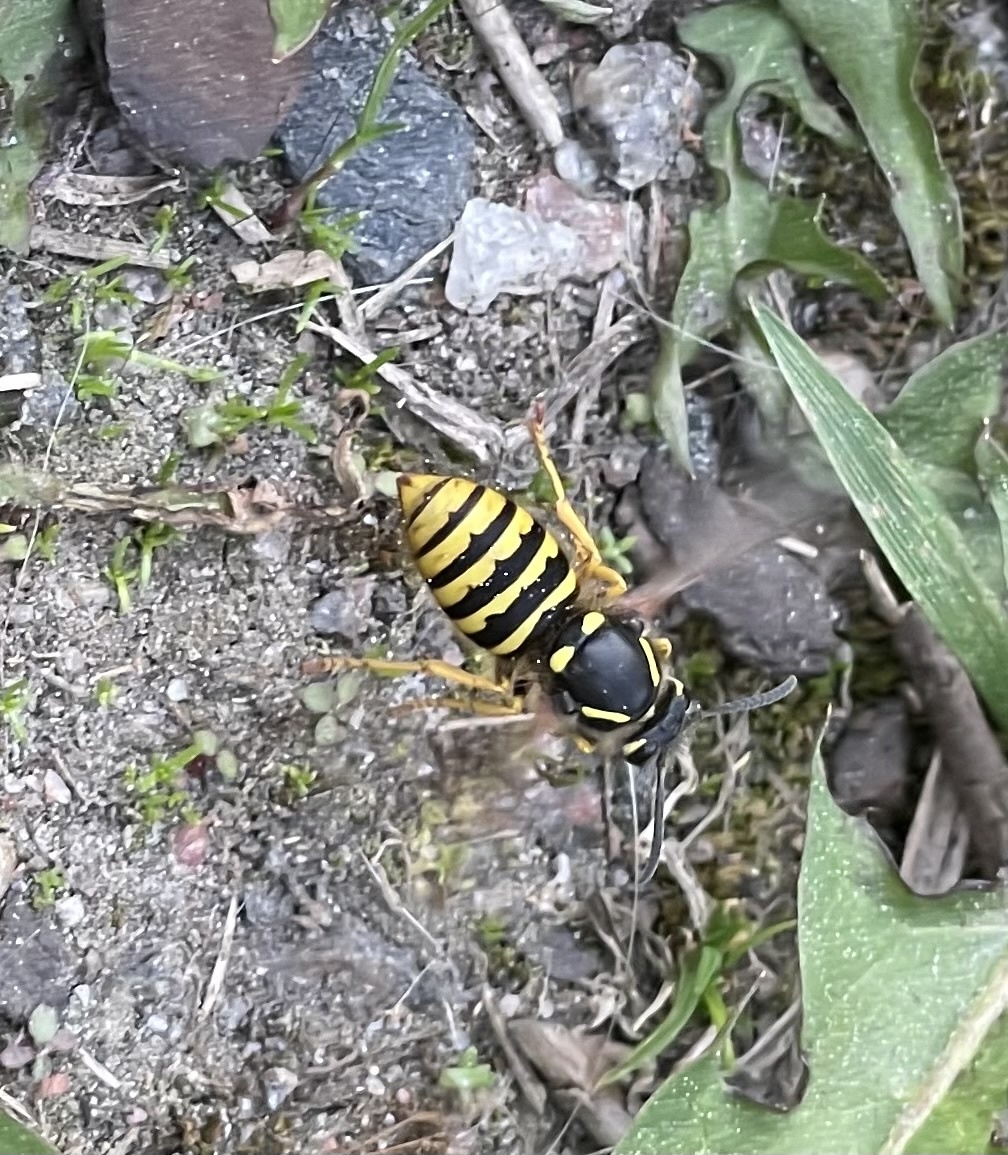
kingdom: Animalia
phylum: Arthropoda
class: Insecta
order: Hymenoptera
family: Vespidae
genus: Dolichovespula
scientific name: Dolichovespula sylvestris
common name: Tree wasp
